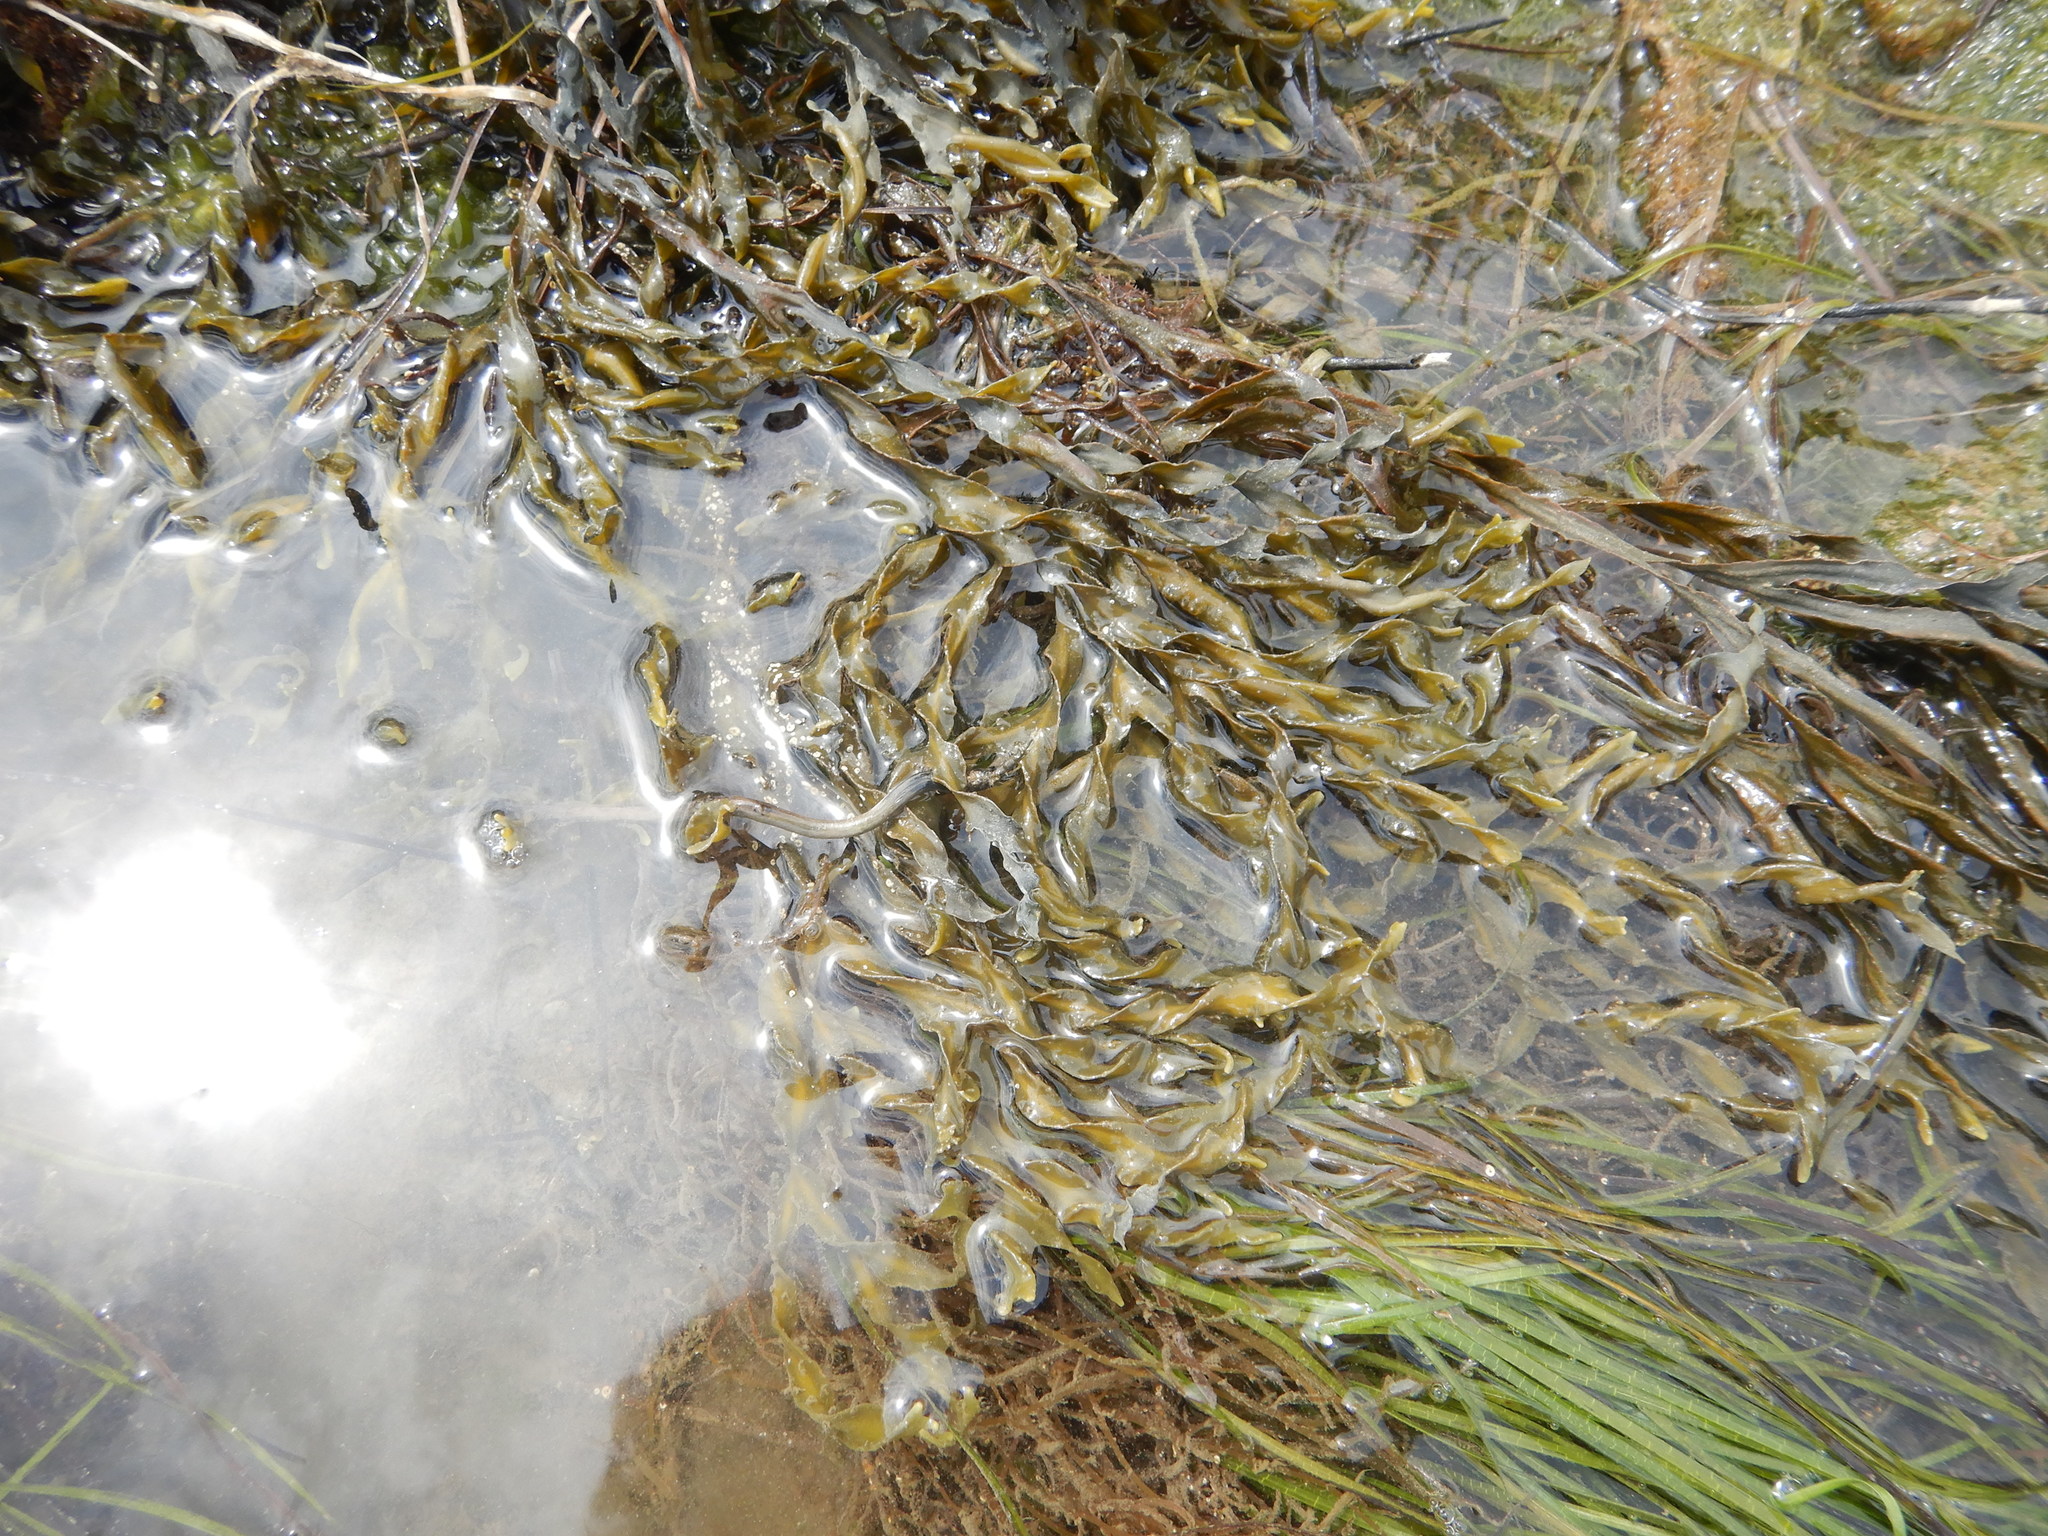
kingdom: Chromista
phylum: Ochrophyta
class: Phaeophyceae
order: Fucales
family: Fucaceae
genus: Fucus
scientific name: Fucus vesiculosus
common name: Bladder wrack
